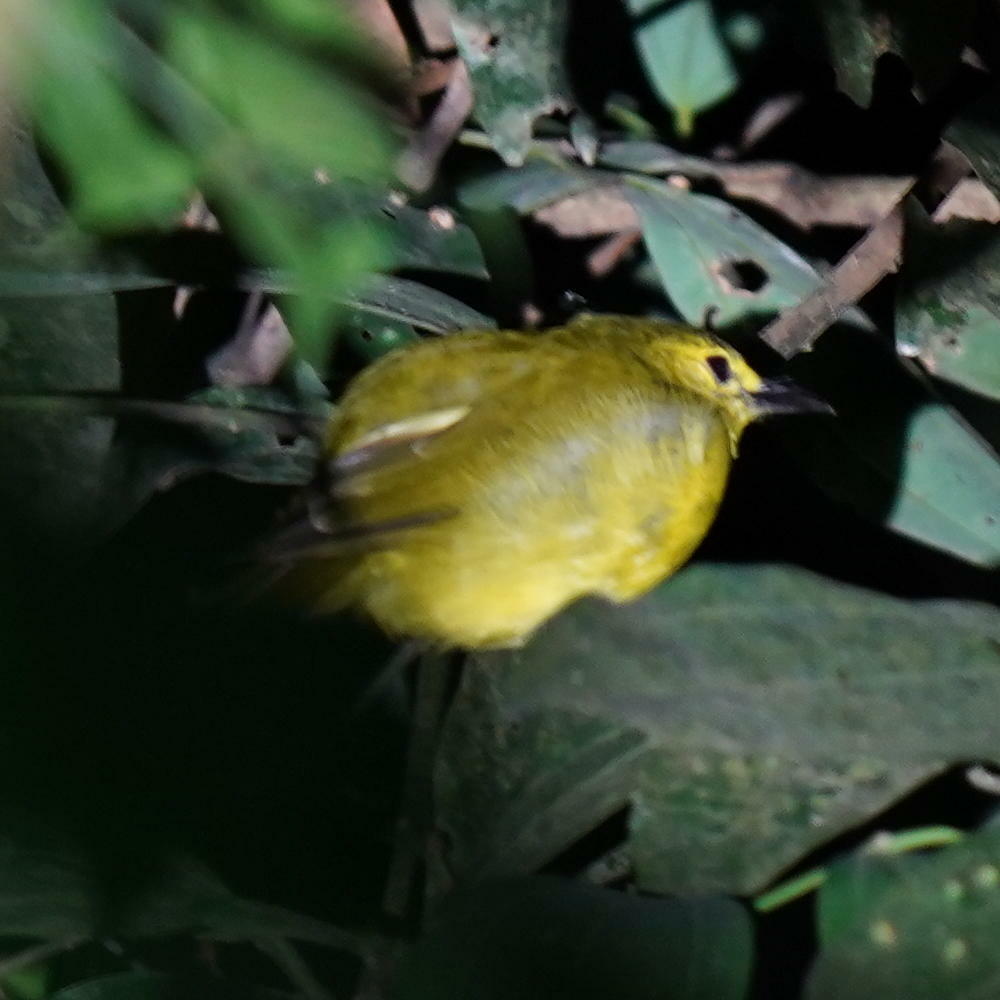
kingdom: Animalia
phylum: Chordata
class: Aves
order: Passeriformes
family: Pycnonotidae
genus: Acritillas
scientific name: Acritillas indica
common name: Yellow-browed bulbul
